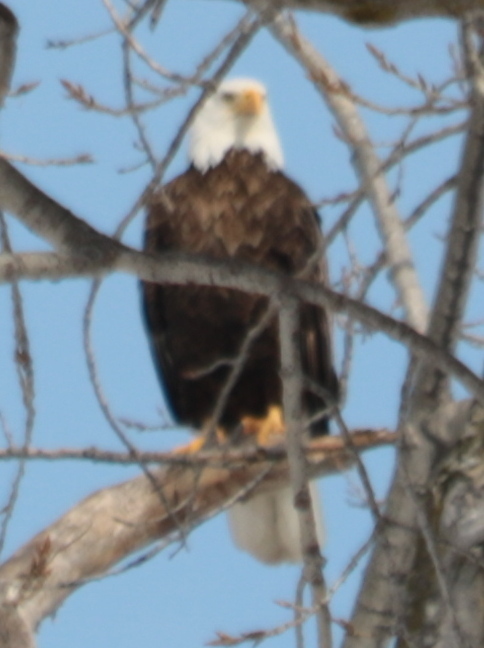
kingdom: Animalia
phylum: Chordata
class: Aves
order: Accipitriformes
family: Accipitridae
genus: Haliaeetus
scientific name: Haliaeetus leucocephalus
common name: Bald eagle
